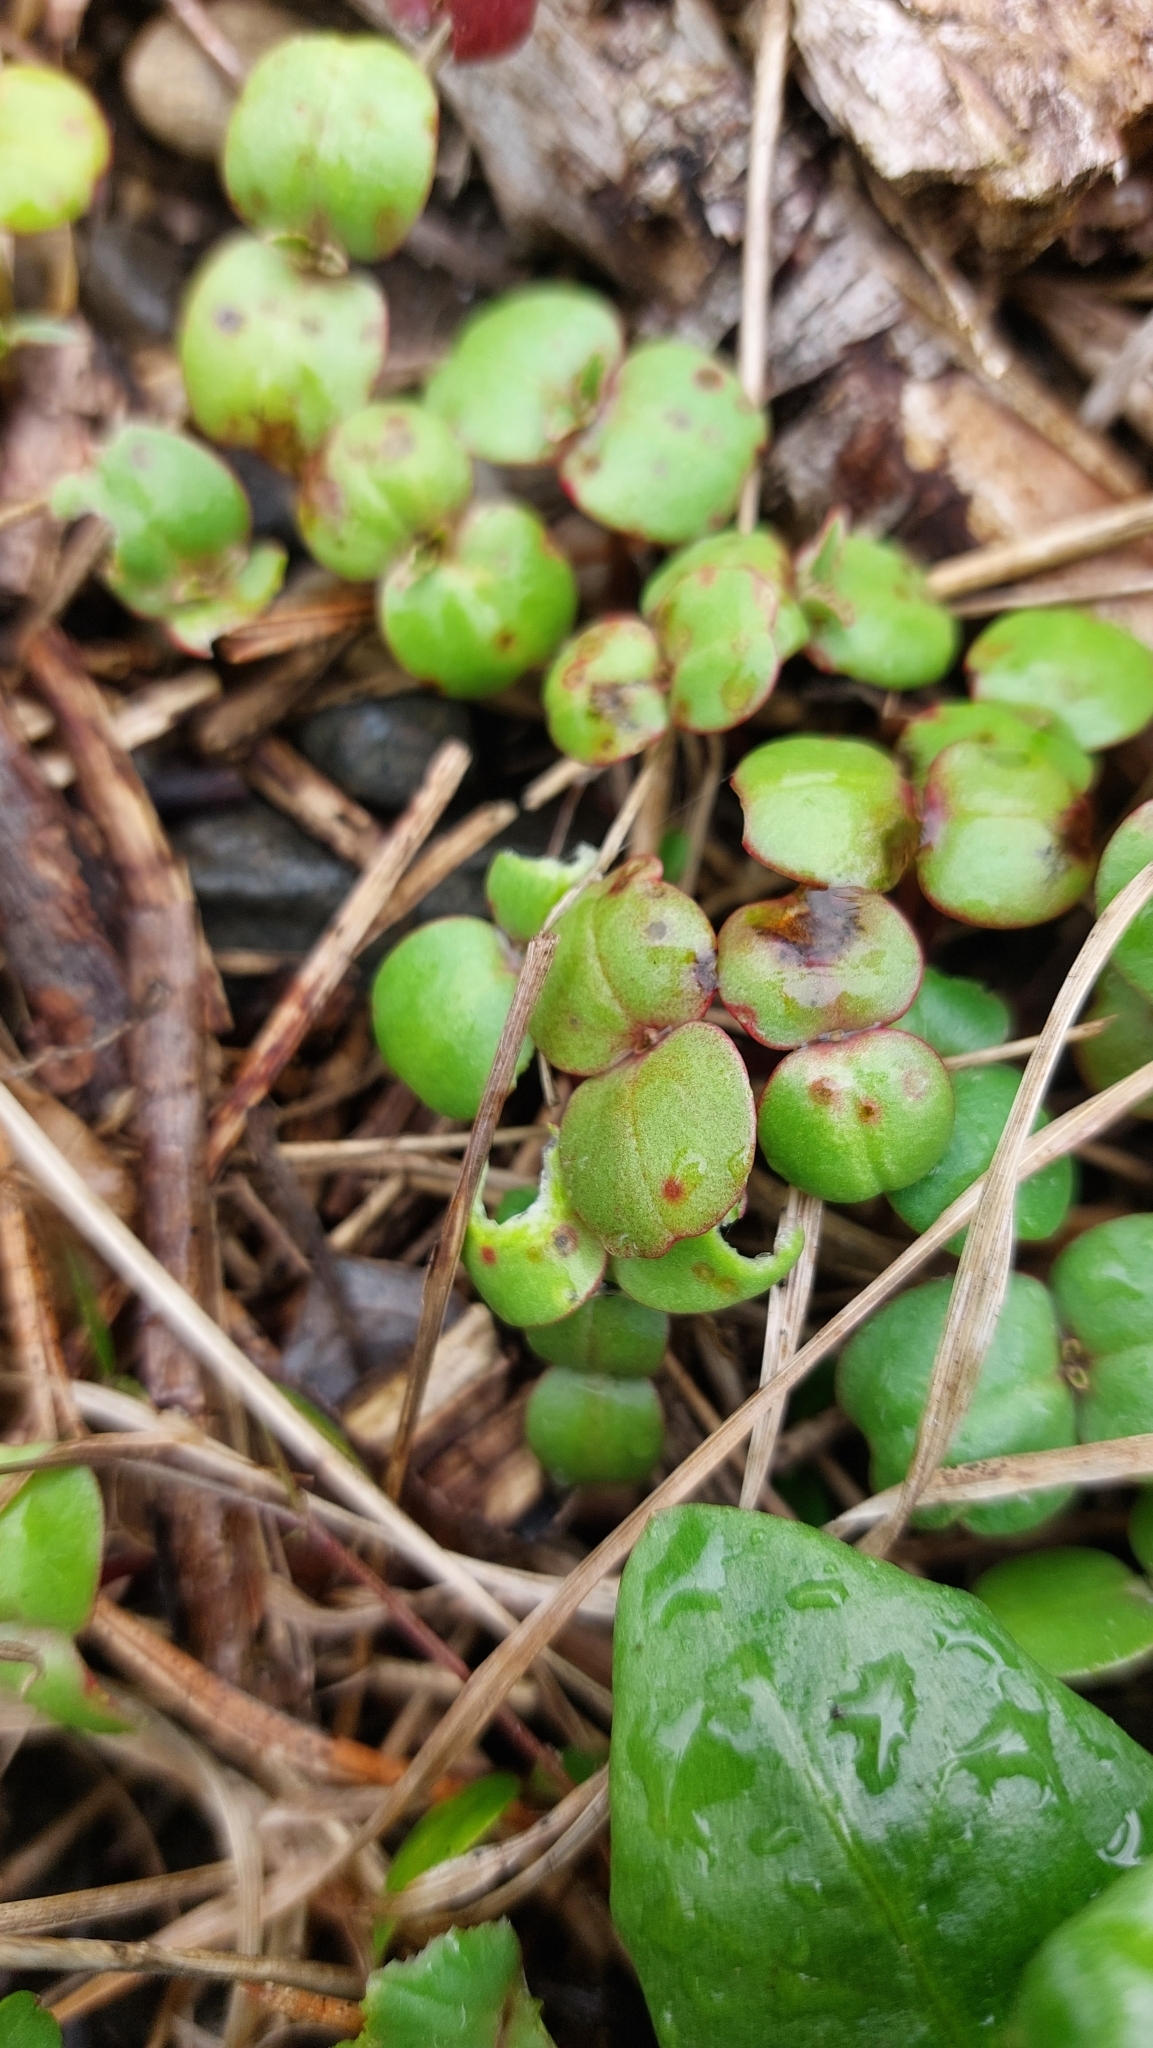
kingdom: Plantae
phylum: Tracheophyta
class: Magnoliopsida
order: Ericales
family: Balsaminaceae
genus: Impatiens
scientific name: Impatiens glandulifera
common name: Himalayan balsam
